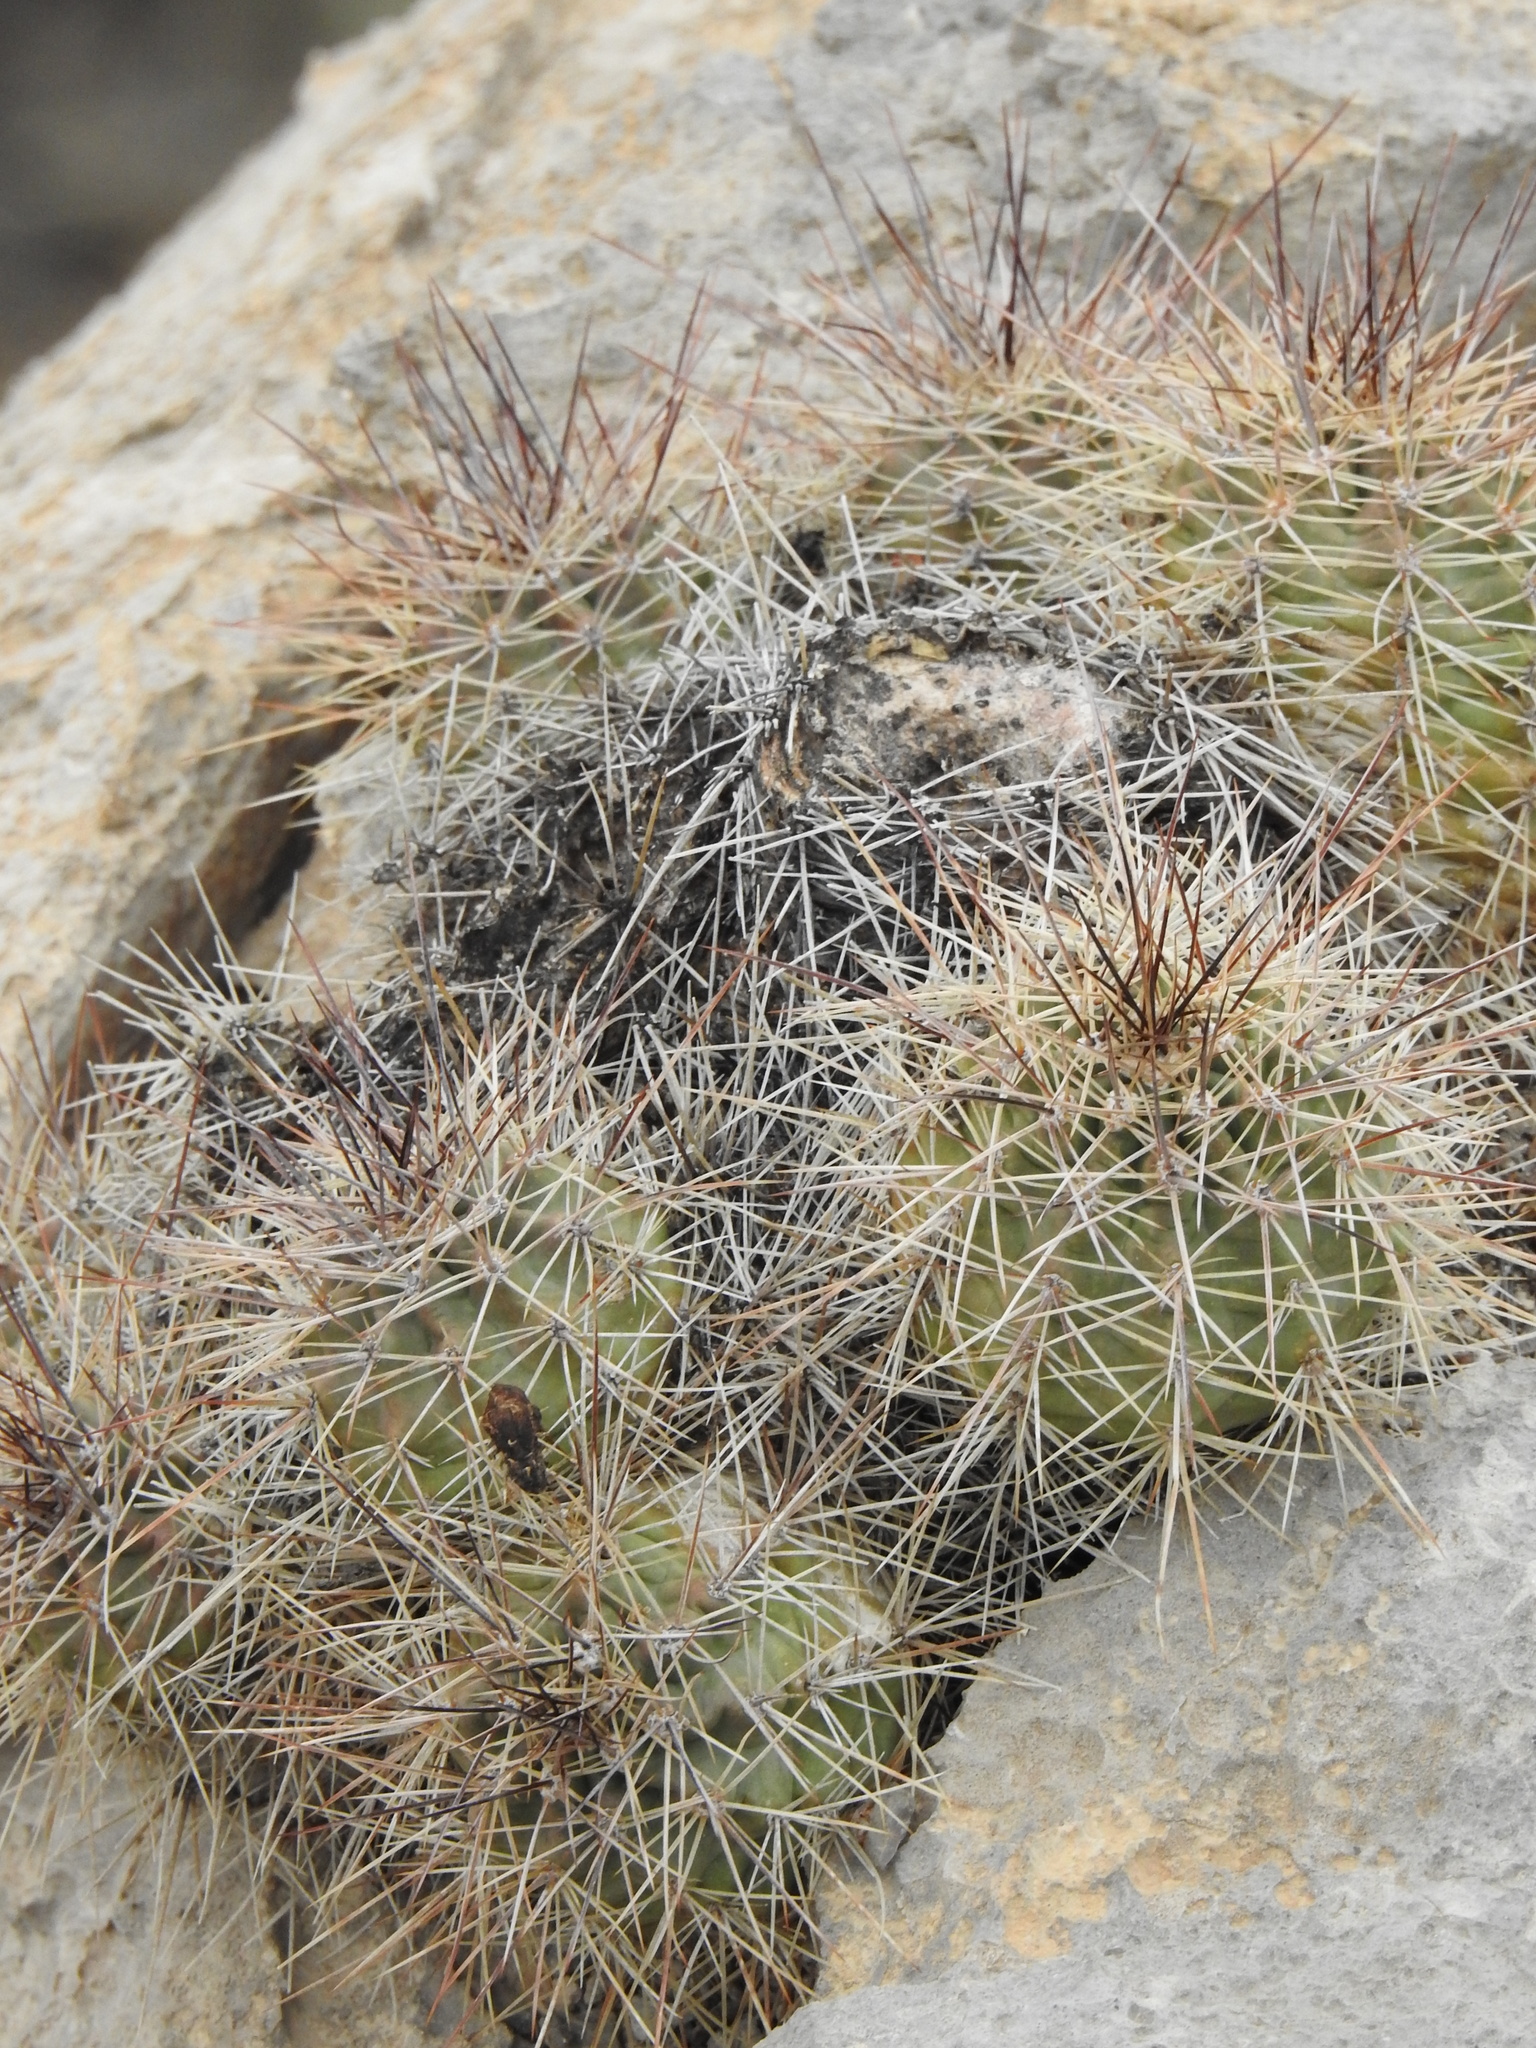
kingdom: Plantae
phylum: Tracheophyta
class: Magnoliopsida
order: Caryophyllales
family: Cactaceae
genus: Echinocereus
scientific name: Echinocereus coccineus
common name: Scarlet hedgehog cactus
